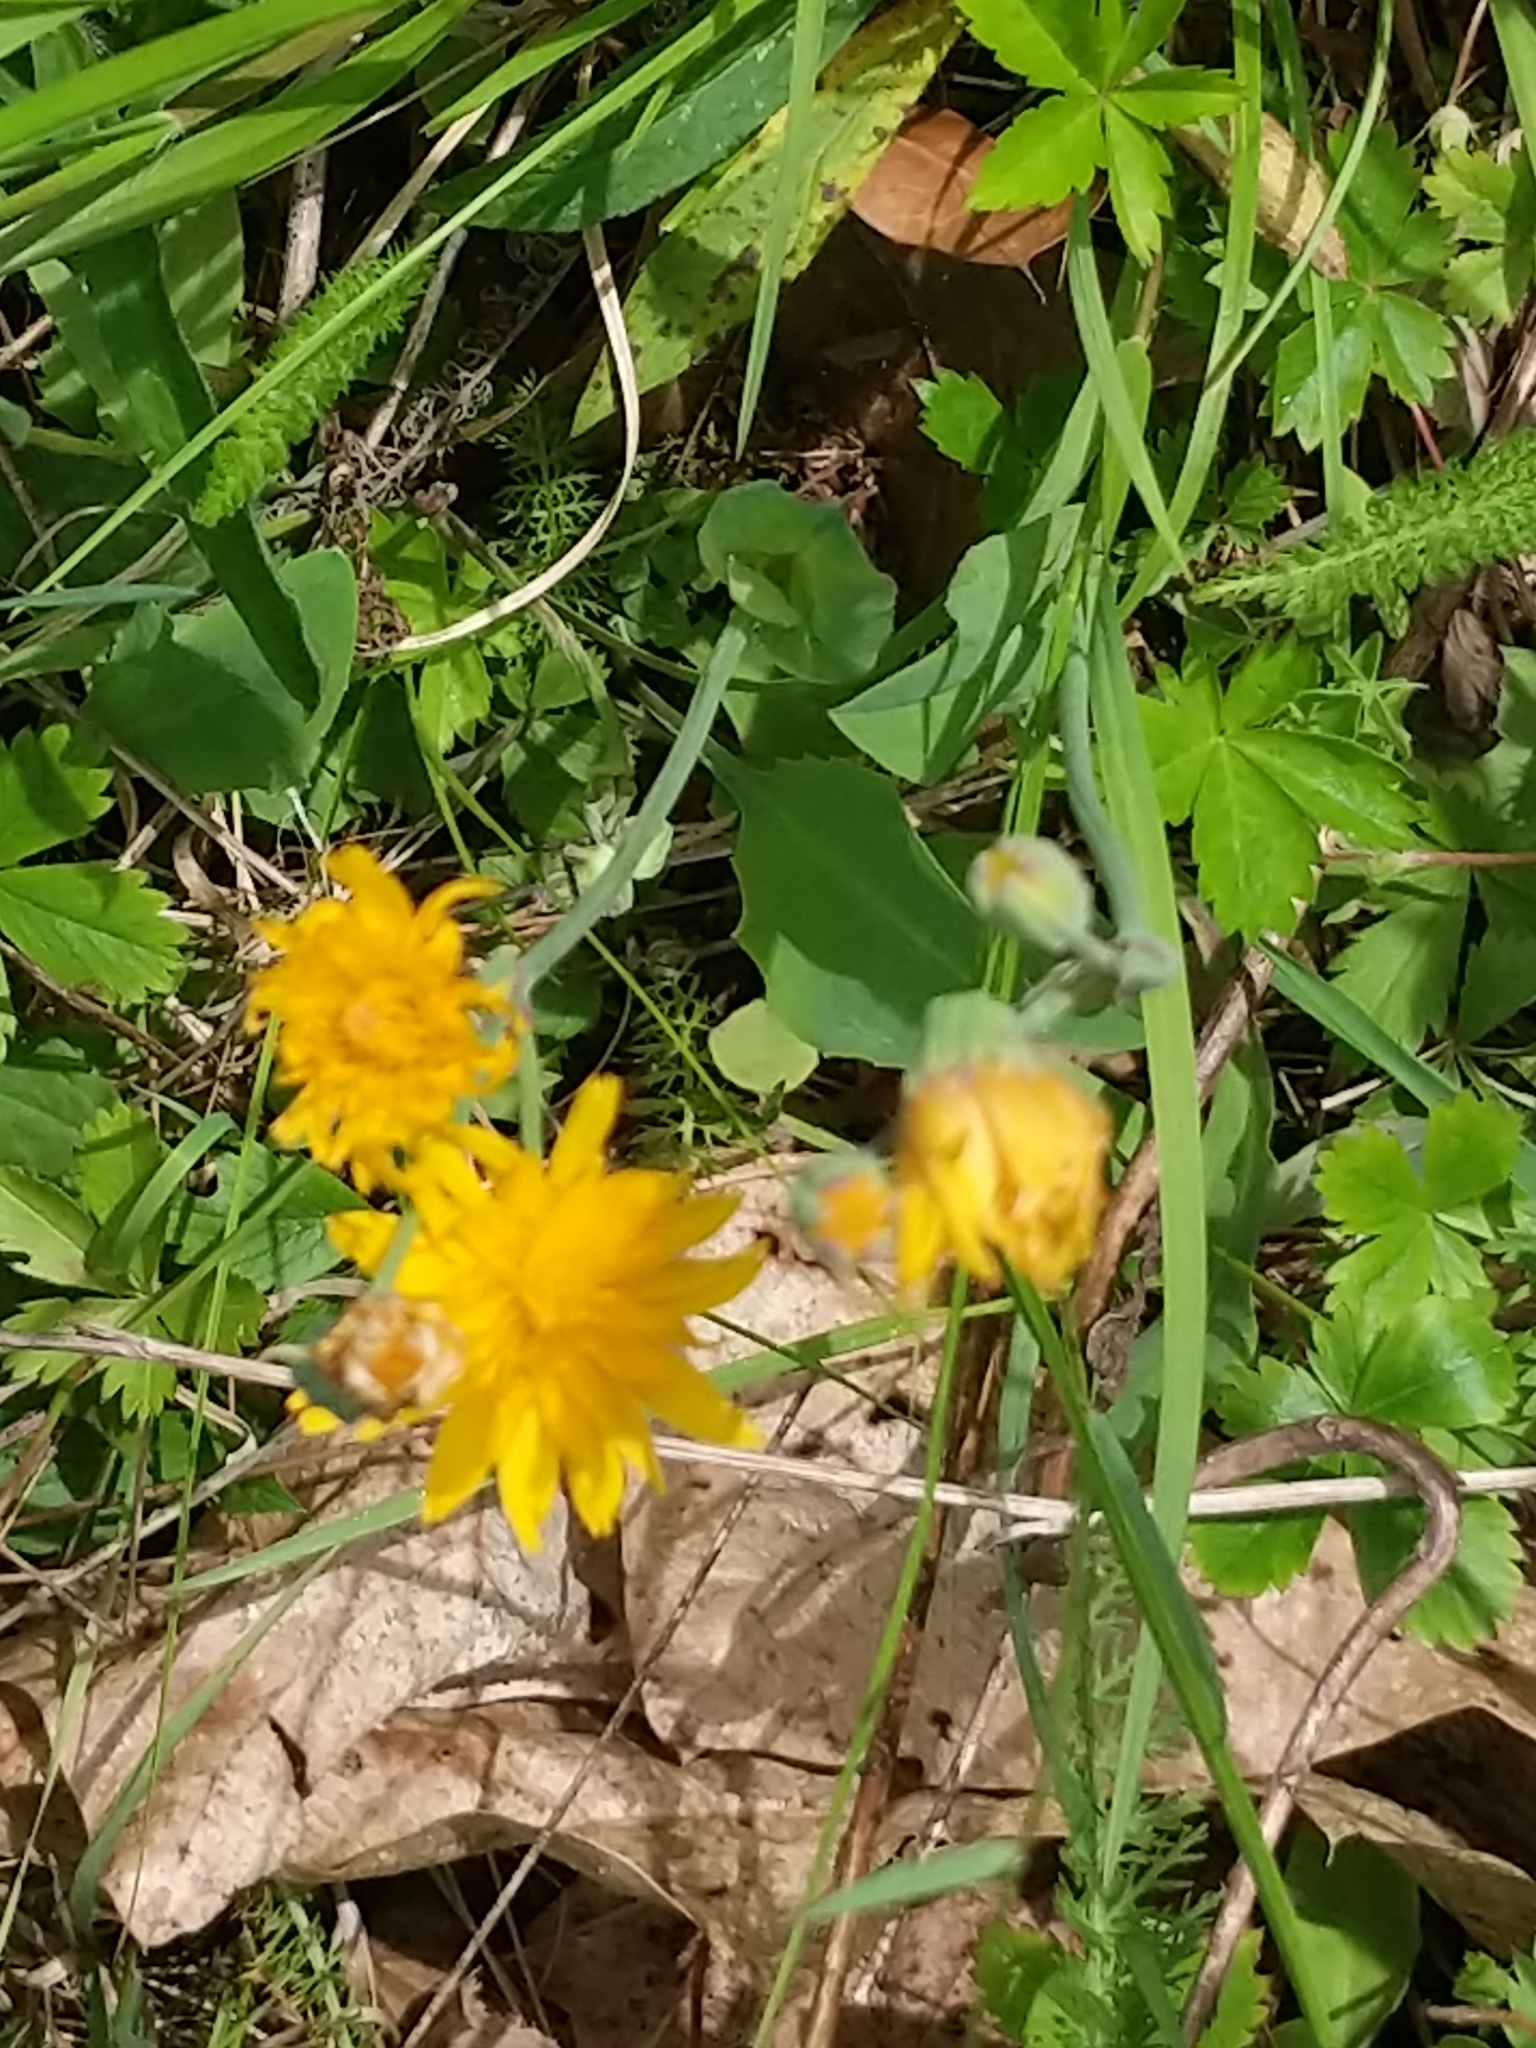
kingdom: Plantae
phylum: Tracheophyta
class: Magnoliopsida
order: Asterales
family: Asteraceae
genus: Krigia
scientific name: Krigia biflora
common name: Orange dwarf-dandelion
